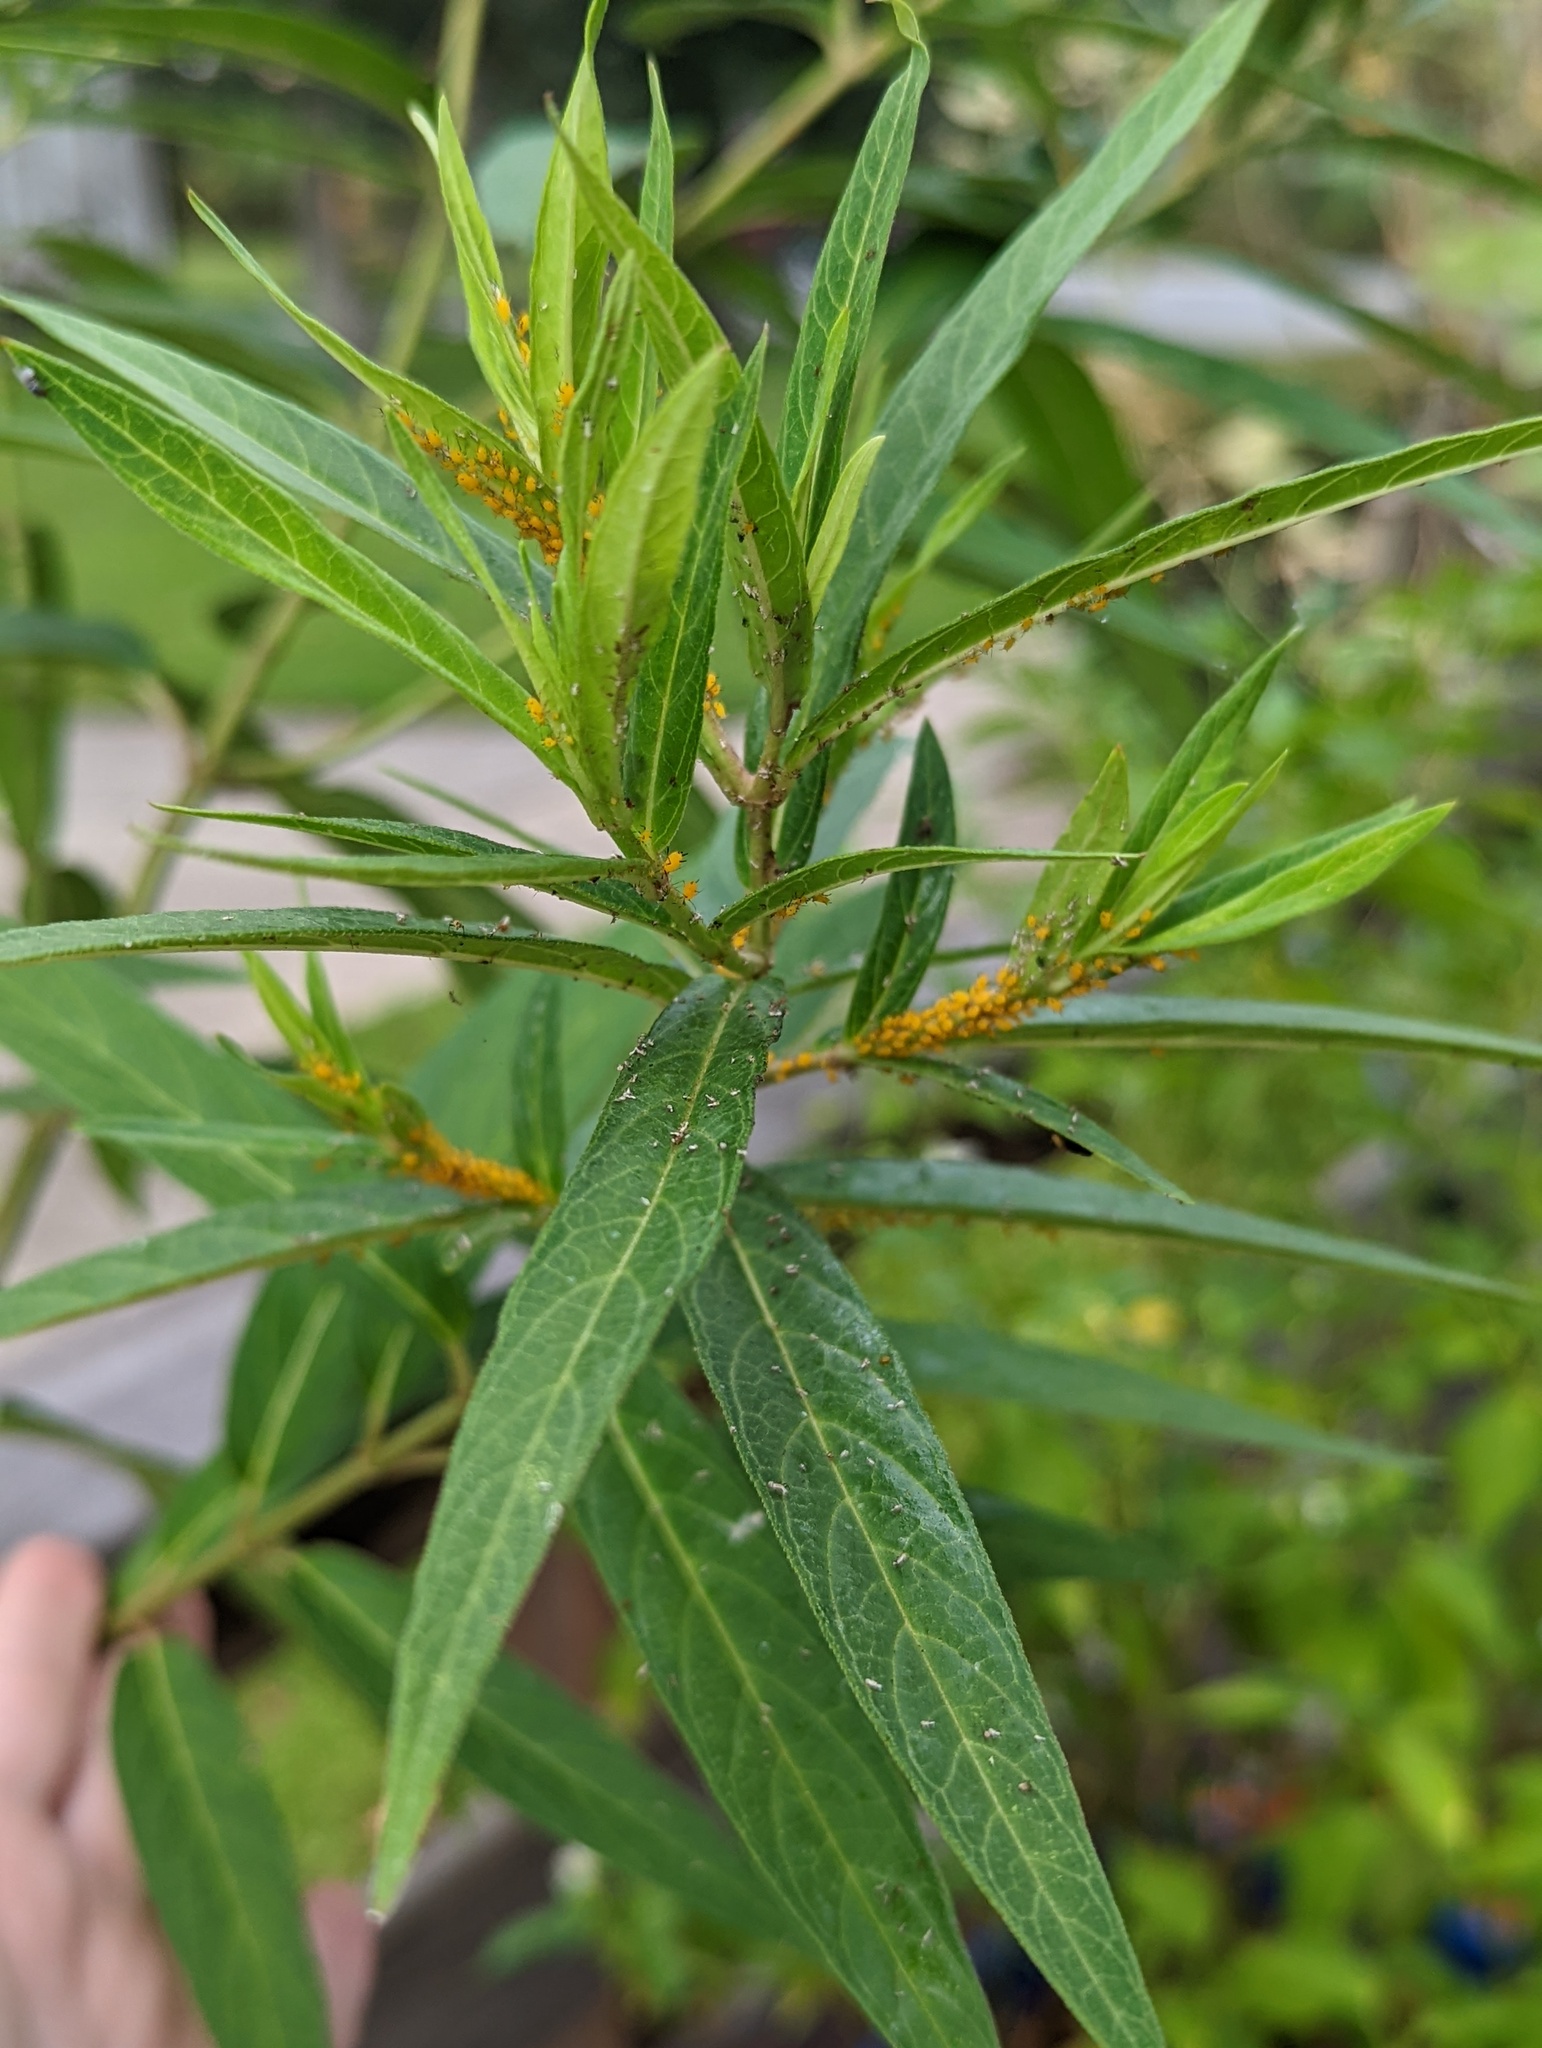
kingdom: Animalia
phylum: Arthropoda
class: Insecta
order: Hemiptera
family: Aphididae
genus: Aphis
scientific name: Aphis nerii
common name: Oleander aphid
